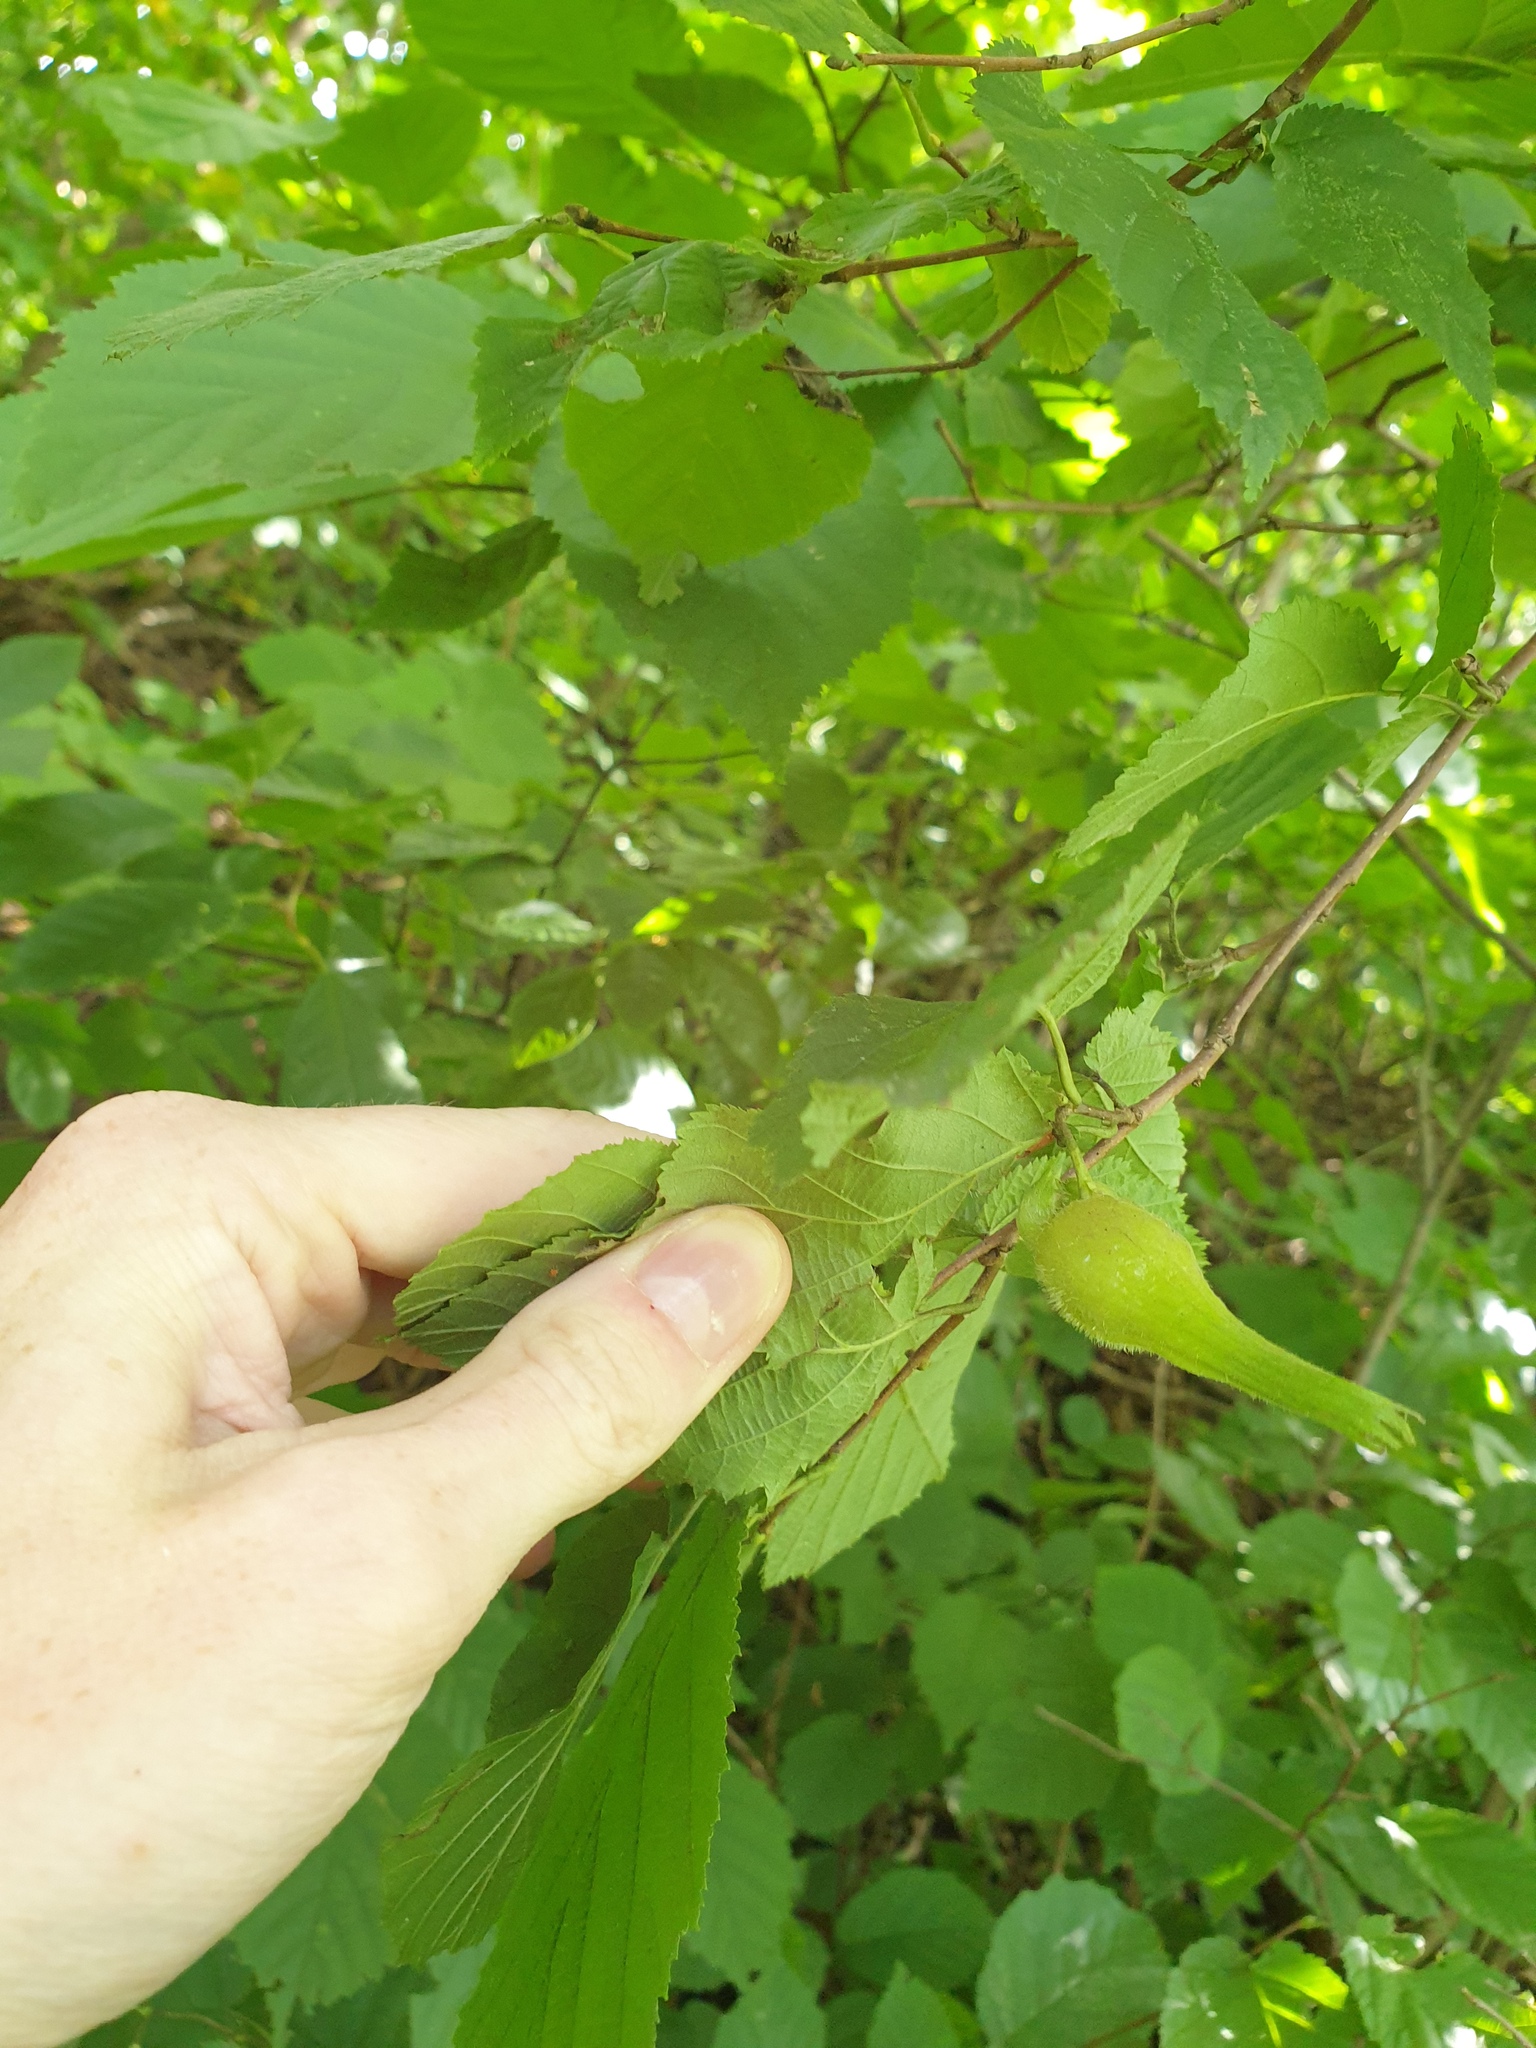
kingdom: Plantae
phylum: Tracheophyta
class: Magnoliopsida
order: Fagales
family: Betulaceae
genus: Corylus
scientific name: Corylus cornuta
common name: Beaked hazel
